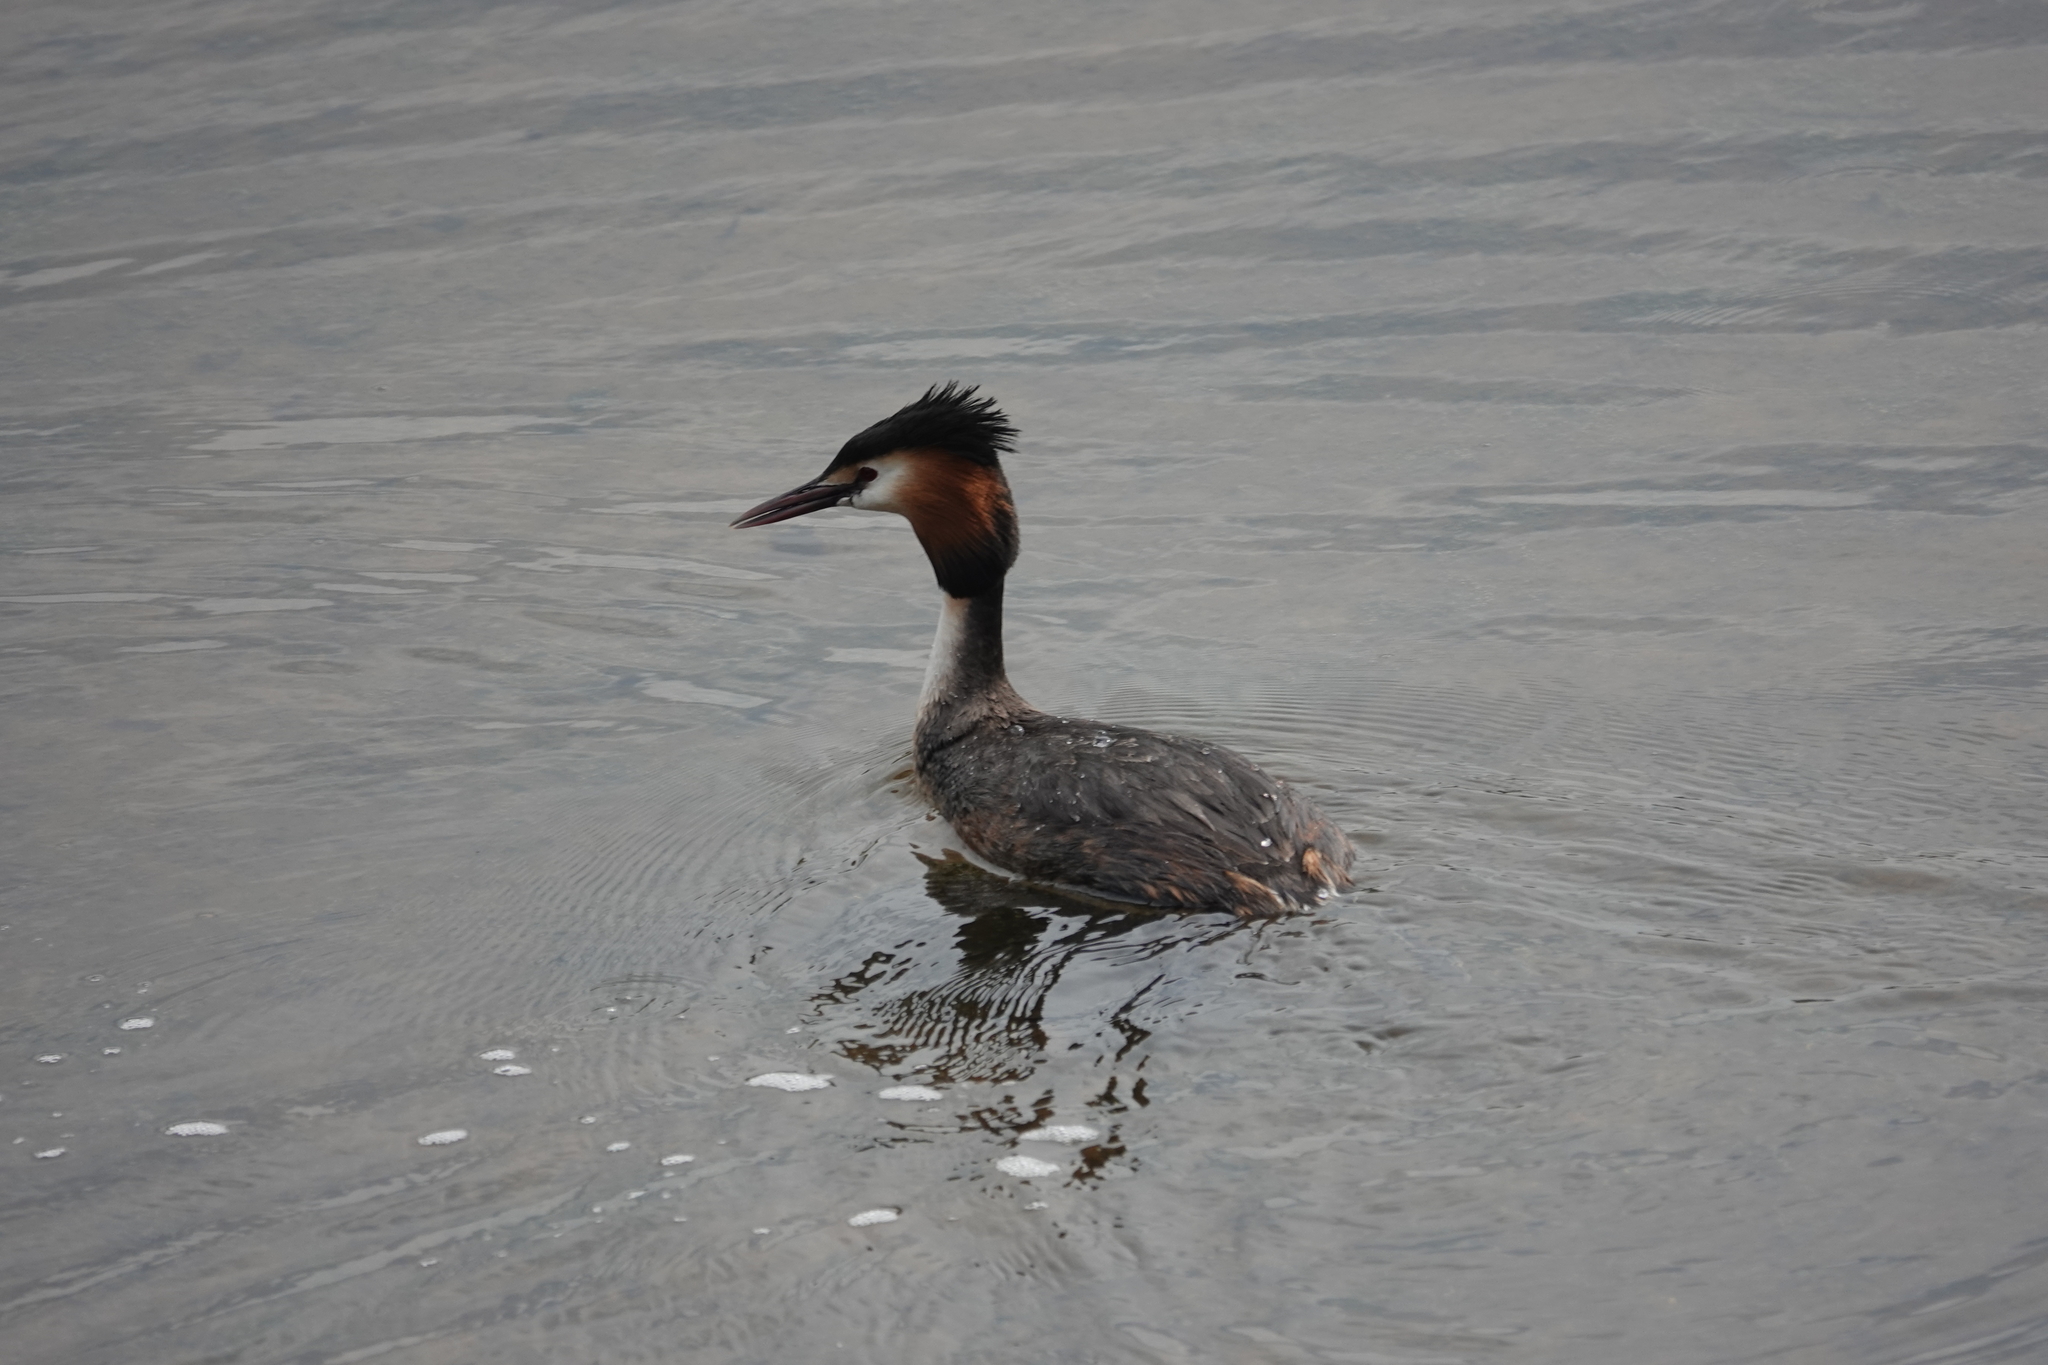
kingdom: Animalia
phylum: Chordata
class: Aves
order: Podicipediformes
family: Podicipedidae
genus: Podiceps
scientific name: Podiceps cristatus
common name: Great crested grebe
